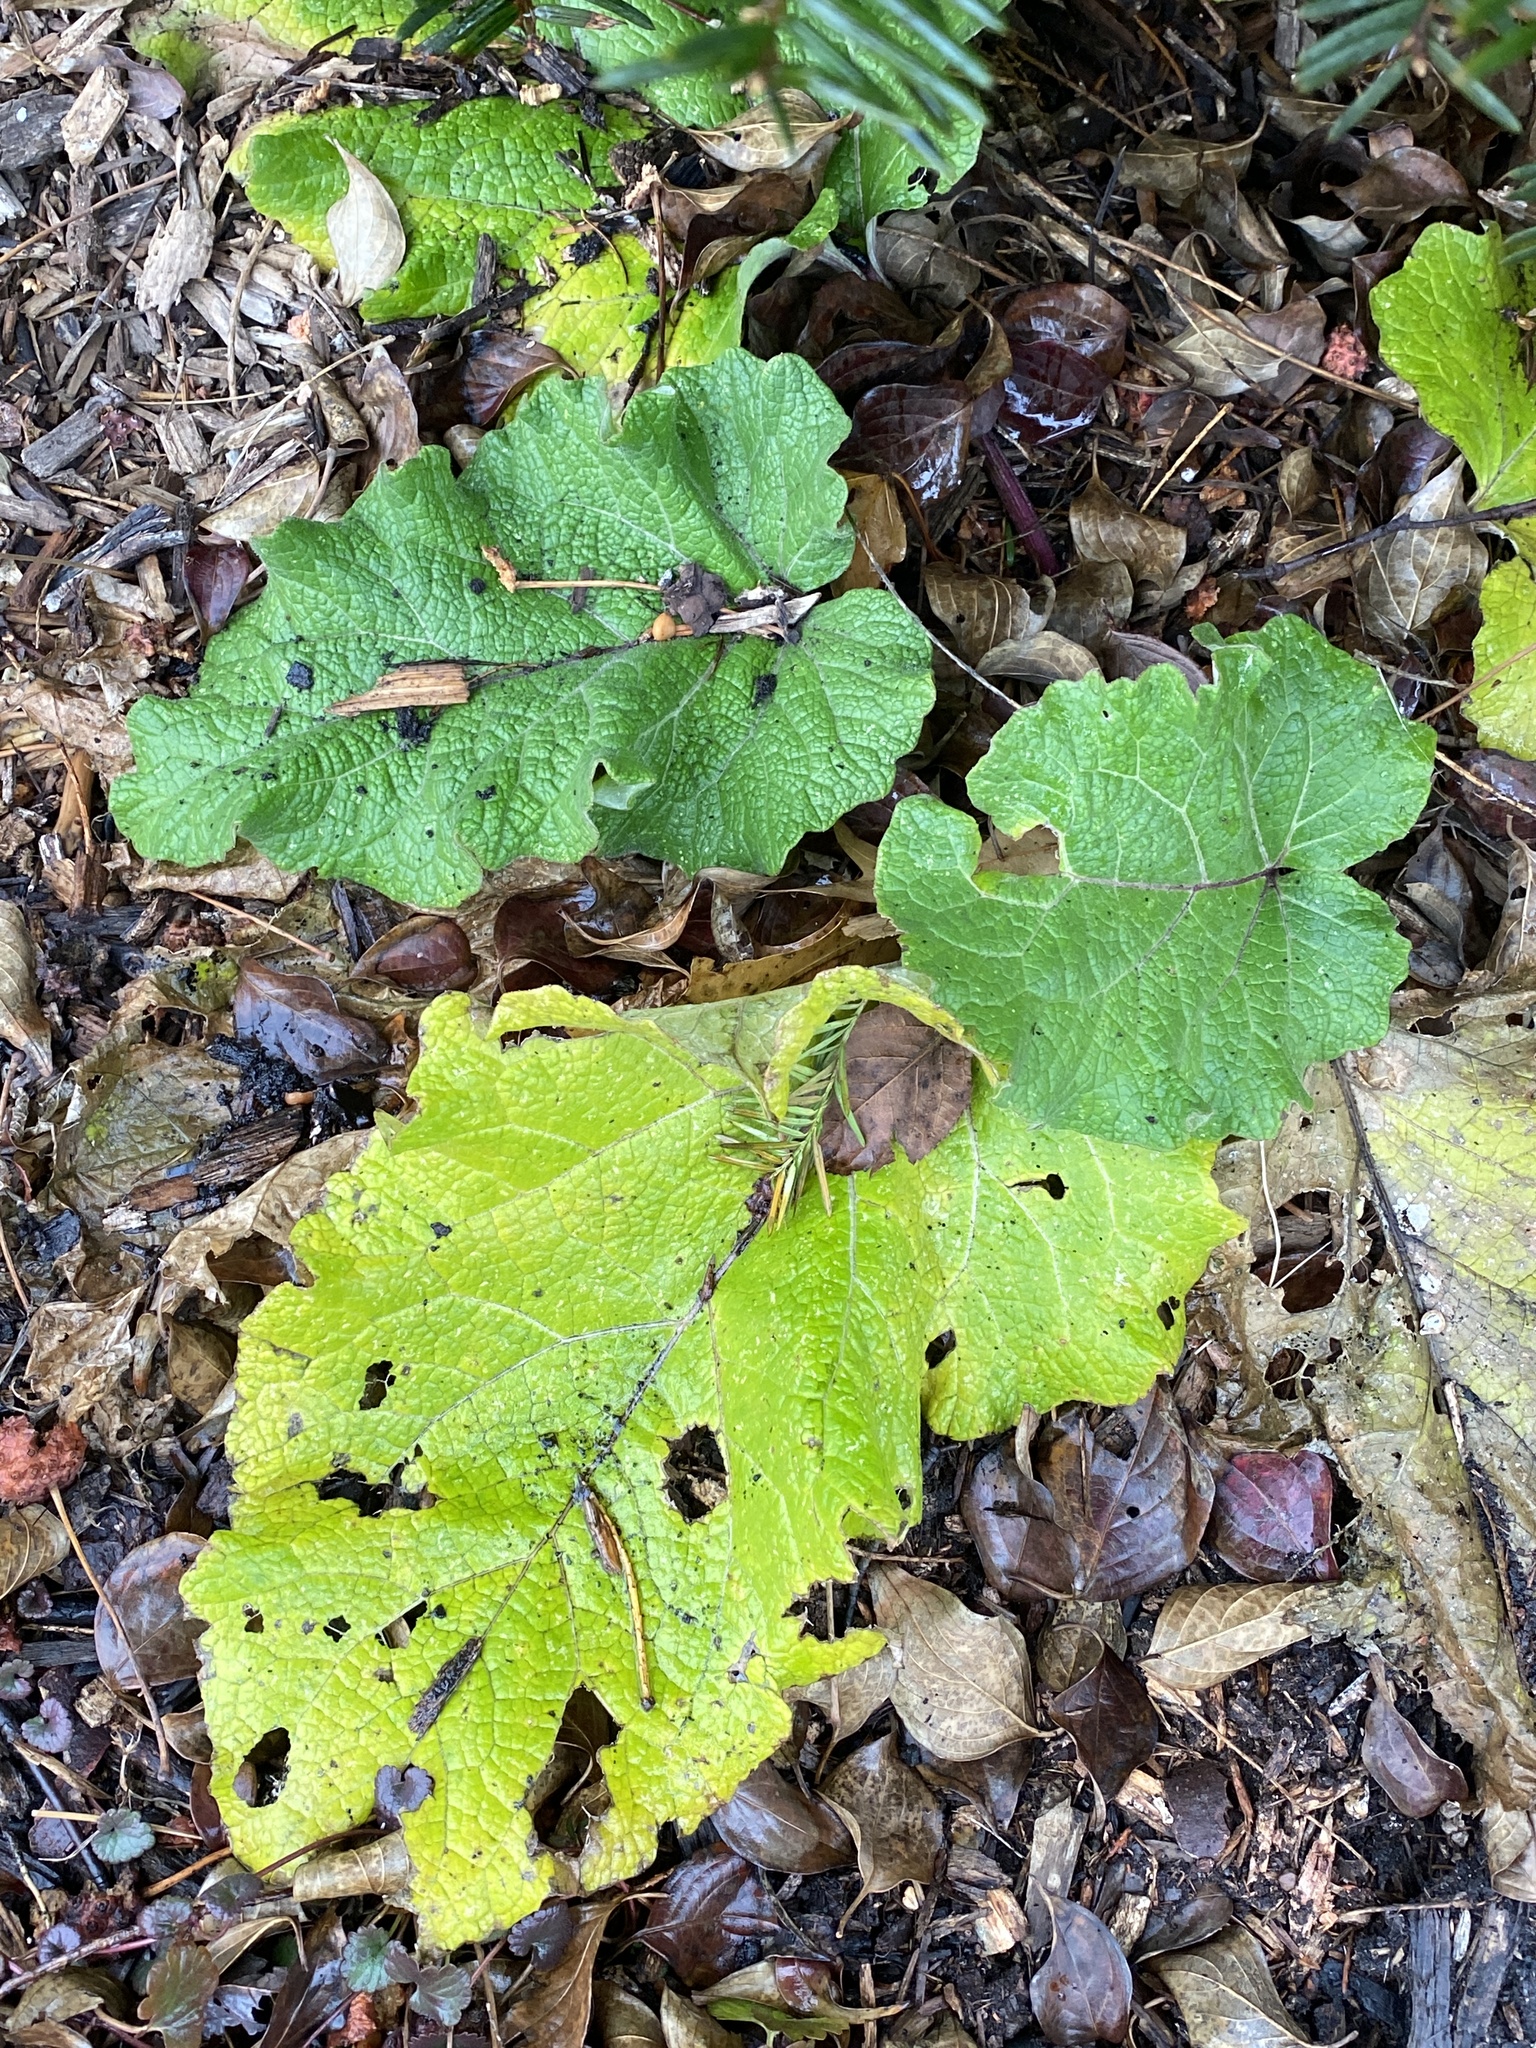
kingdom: Plantae
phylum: Tracheophyta
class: Magnoliopsida
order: Asterales
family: Asteraceae
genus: Arctium
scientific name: Arctium minus
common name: Lesser burdock
